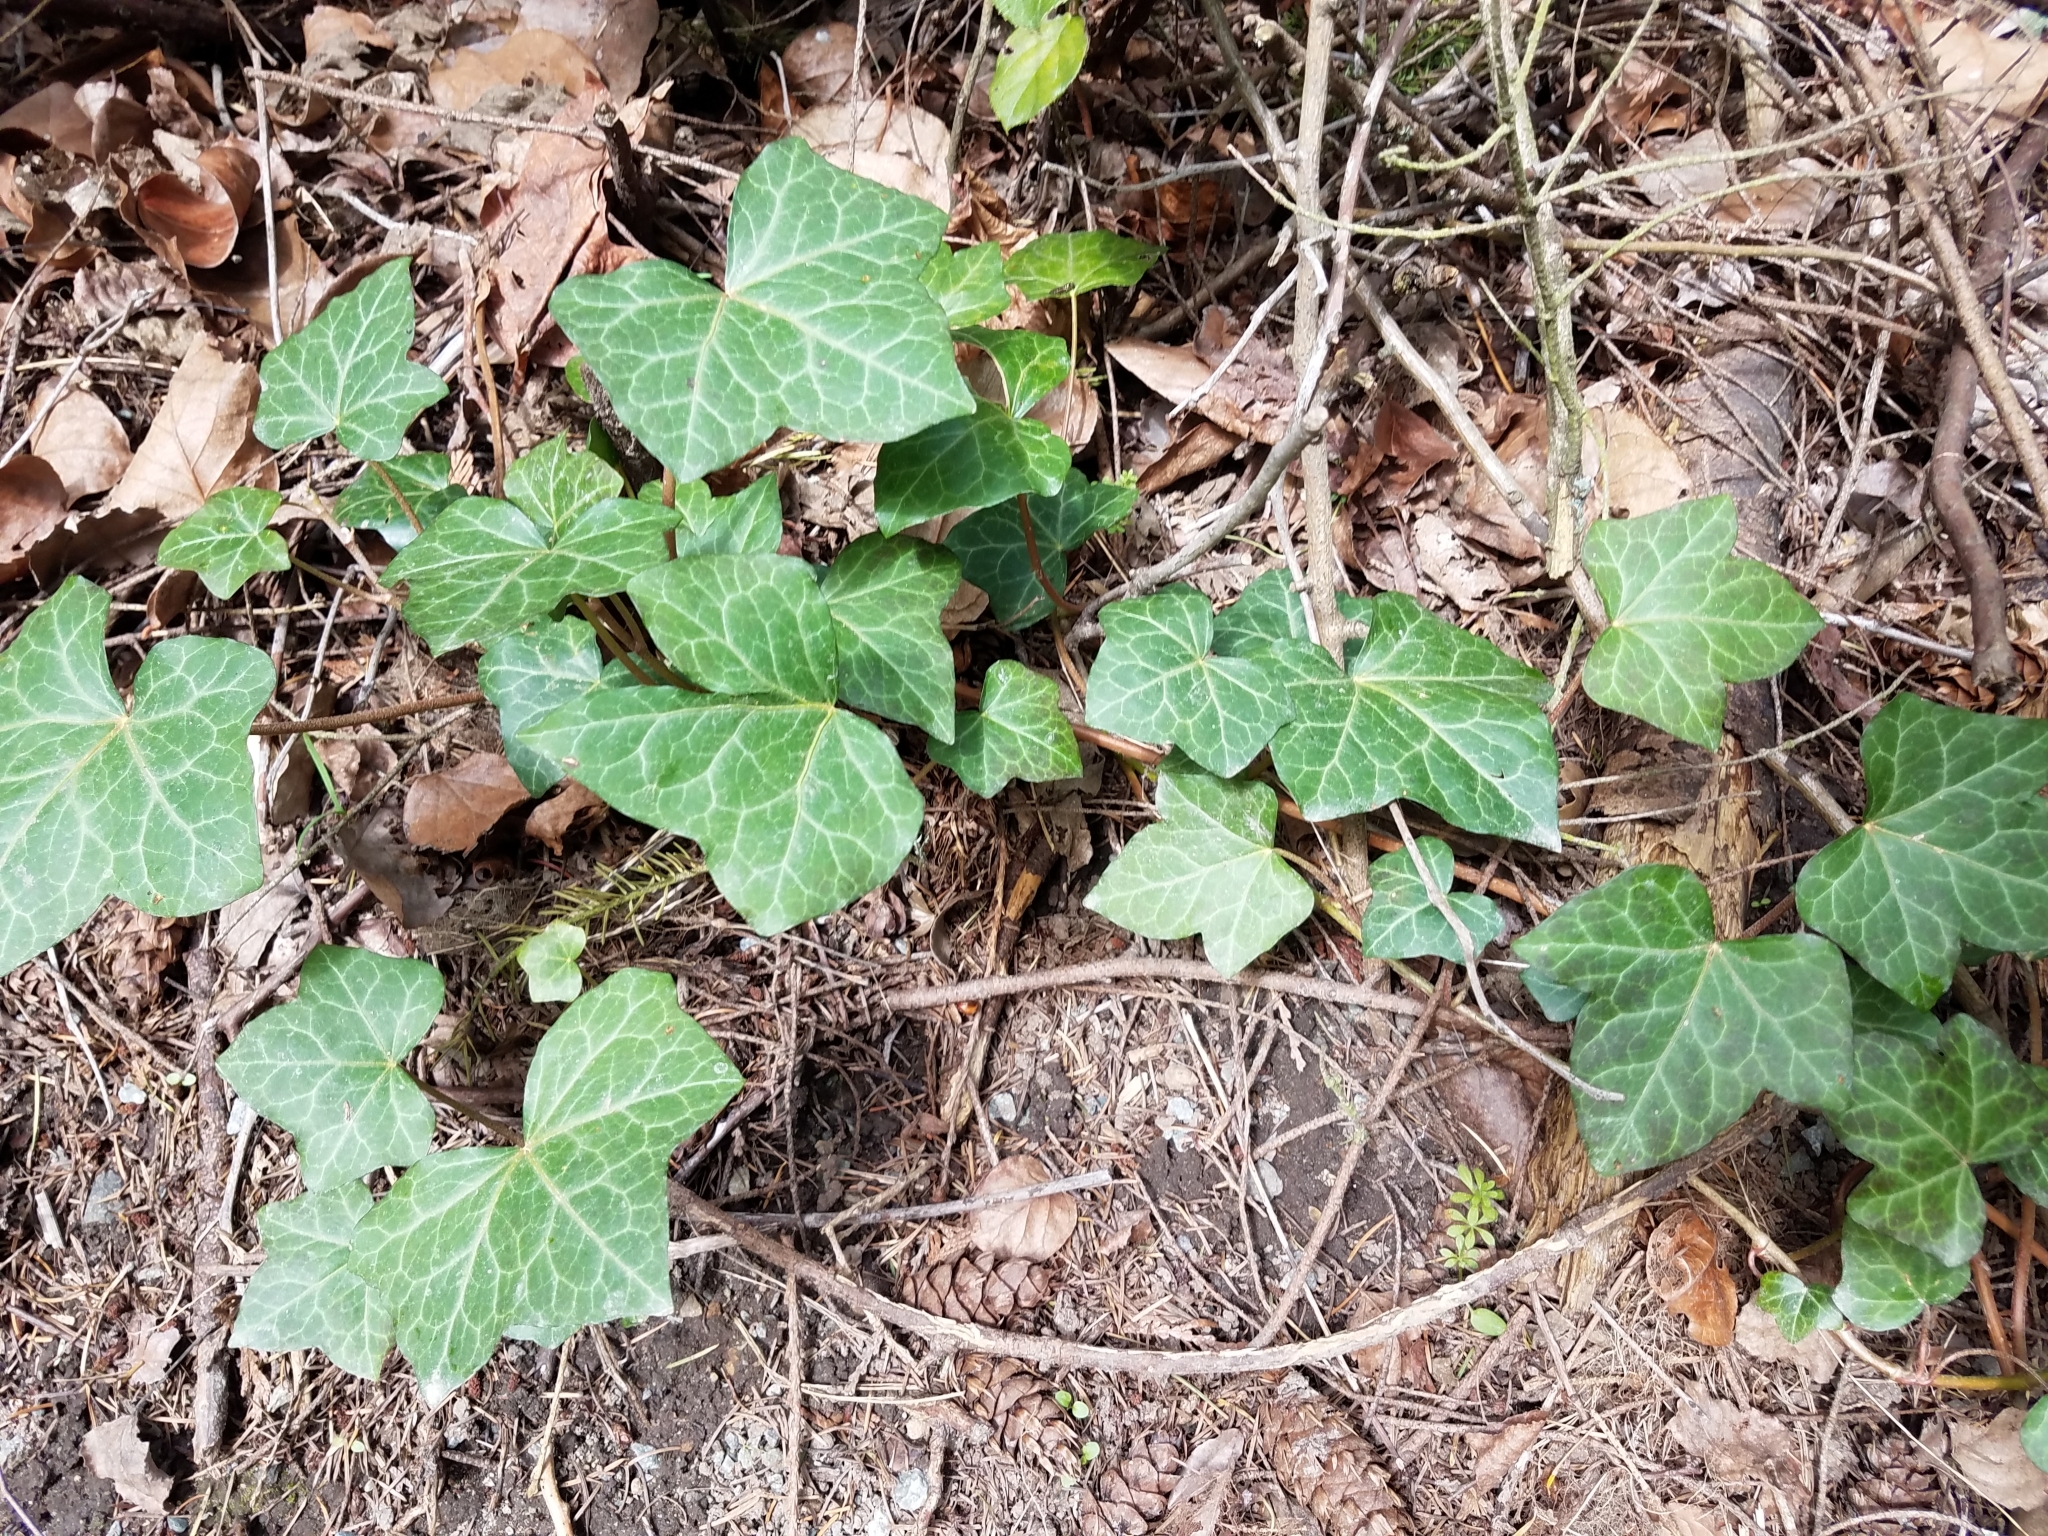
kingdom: Plantae
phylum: Tracheophyta
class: Magnoliopsida
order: Apiales
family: Araliaceae
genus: Hedera
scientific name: Hedera helix
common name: Ivy
